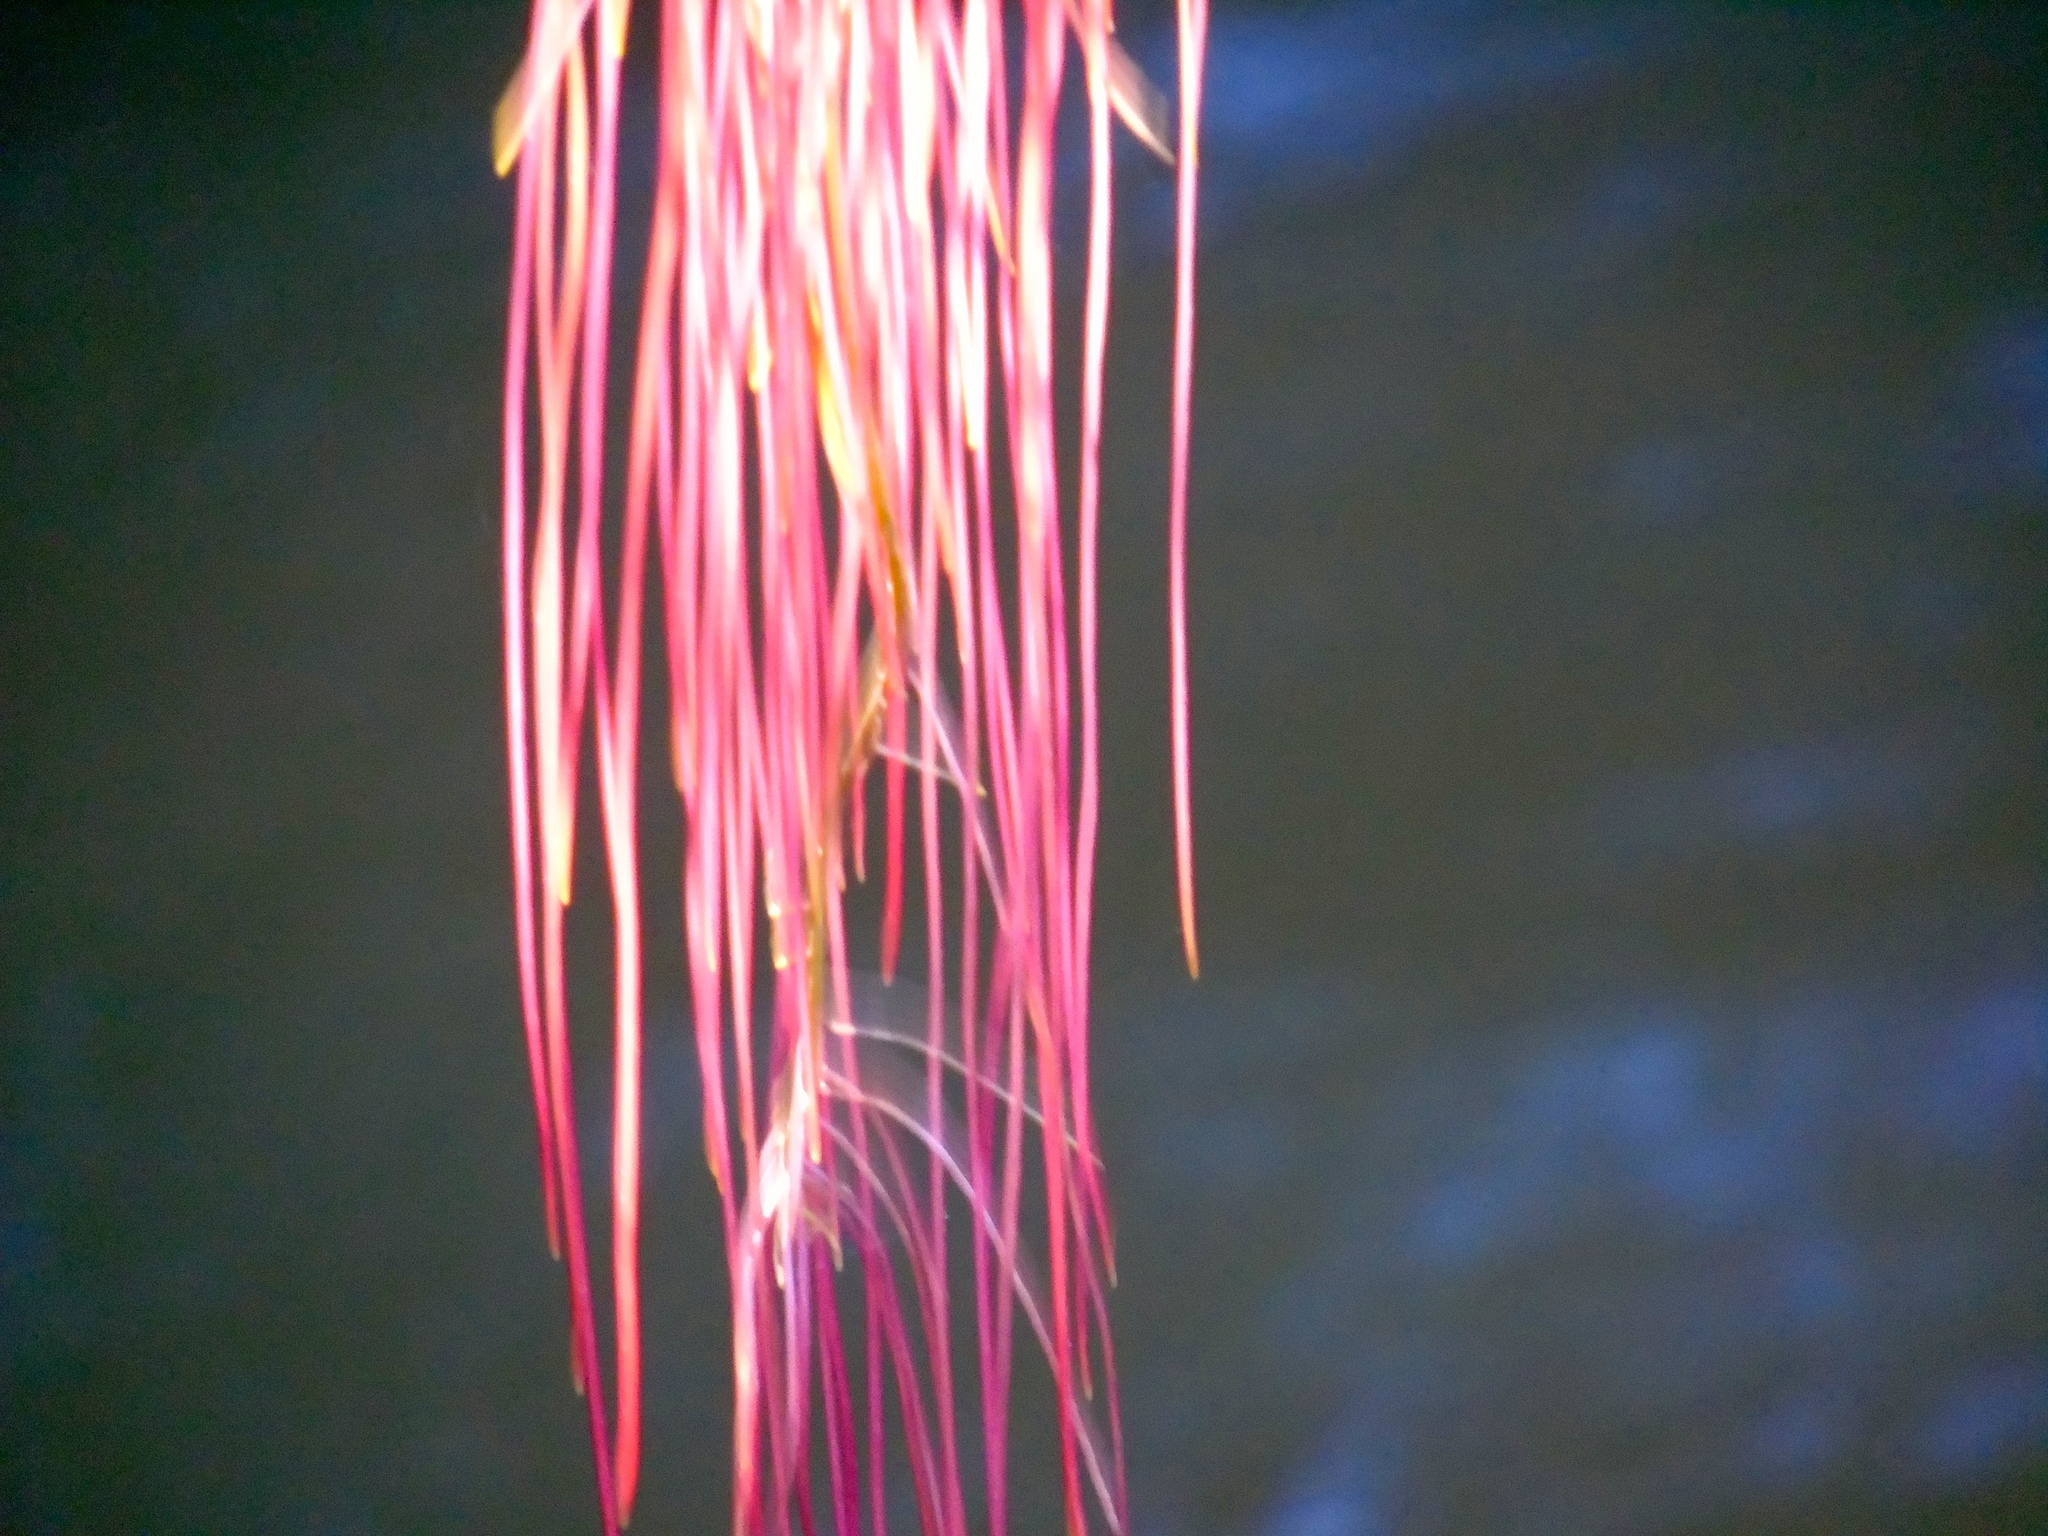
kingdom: Plantae
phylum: Tracheophyta
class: Magnoliopsida
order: Vitales
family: Vitaceae
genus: Cissus
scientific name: Cissus alata
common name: Venezuela treebind
